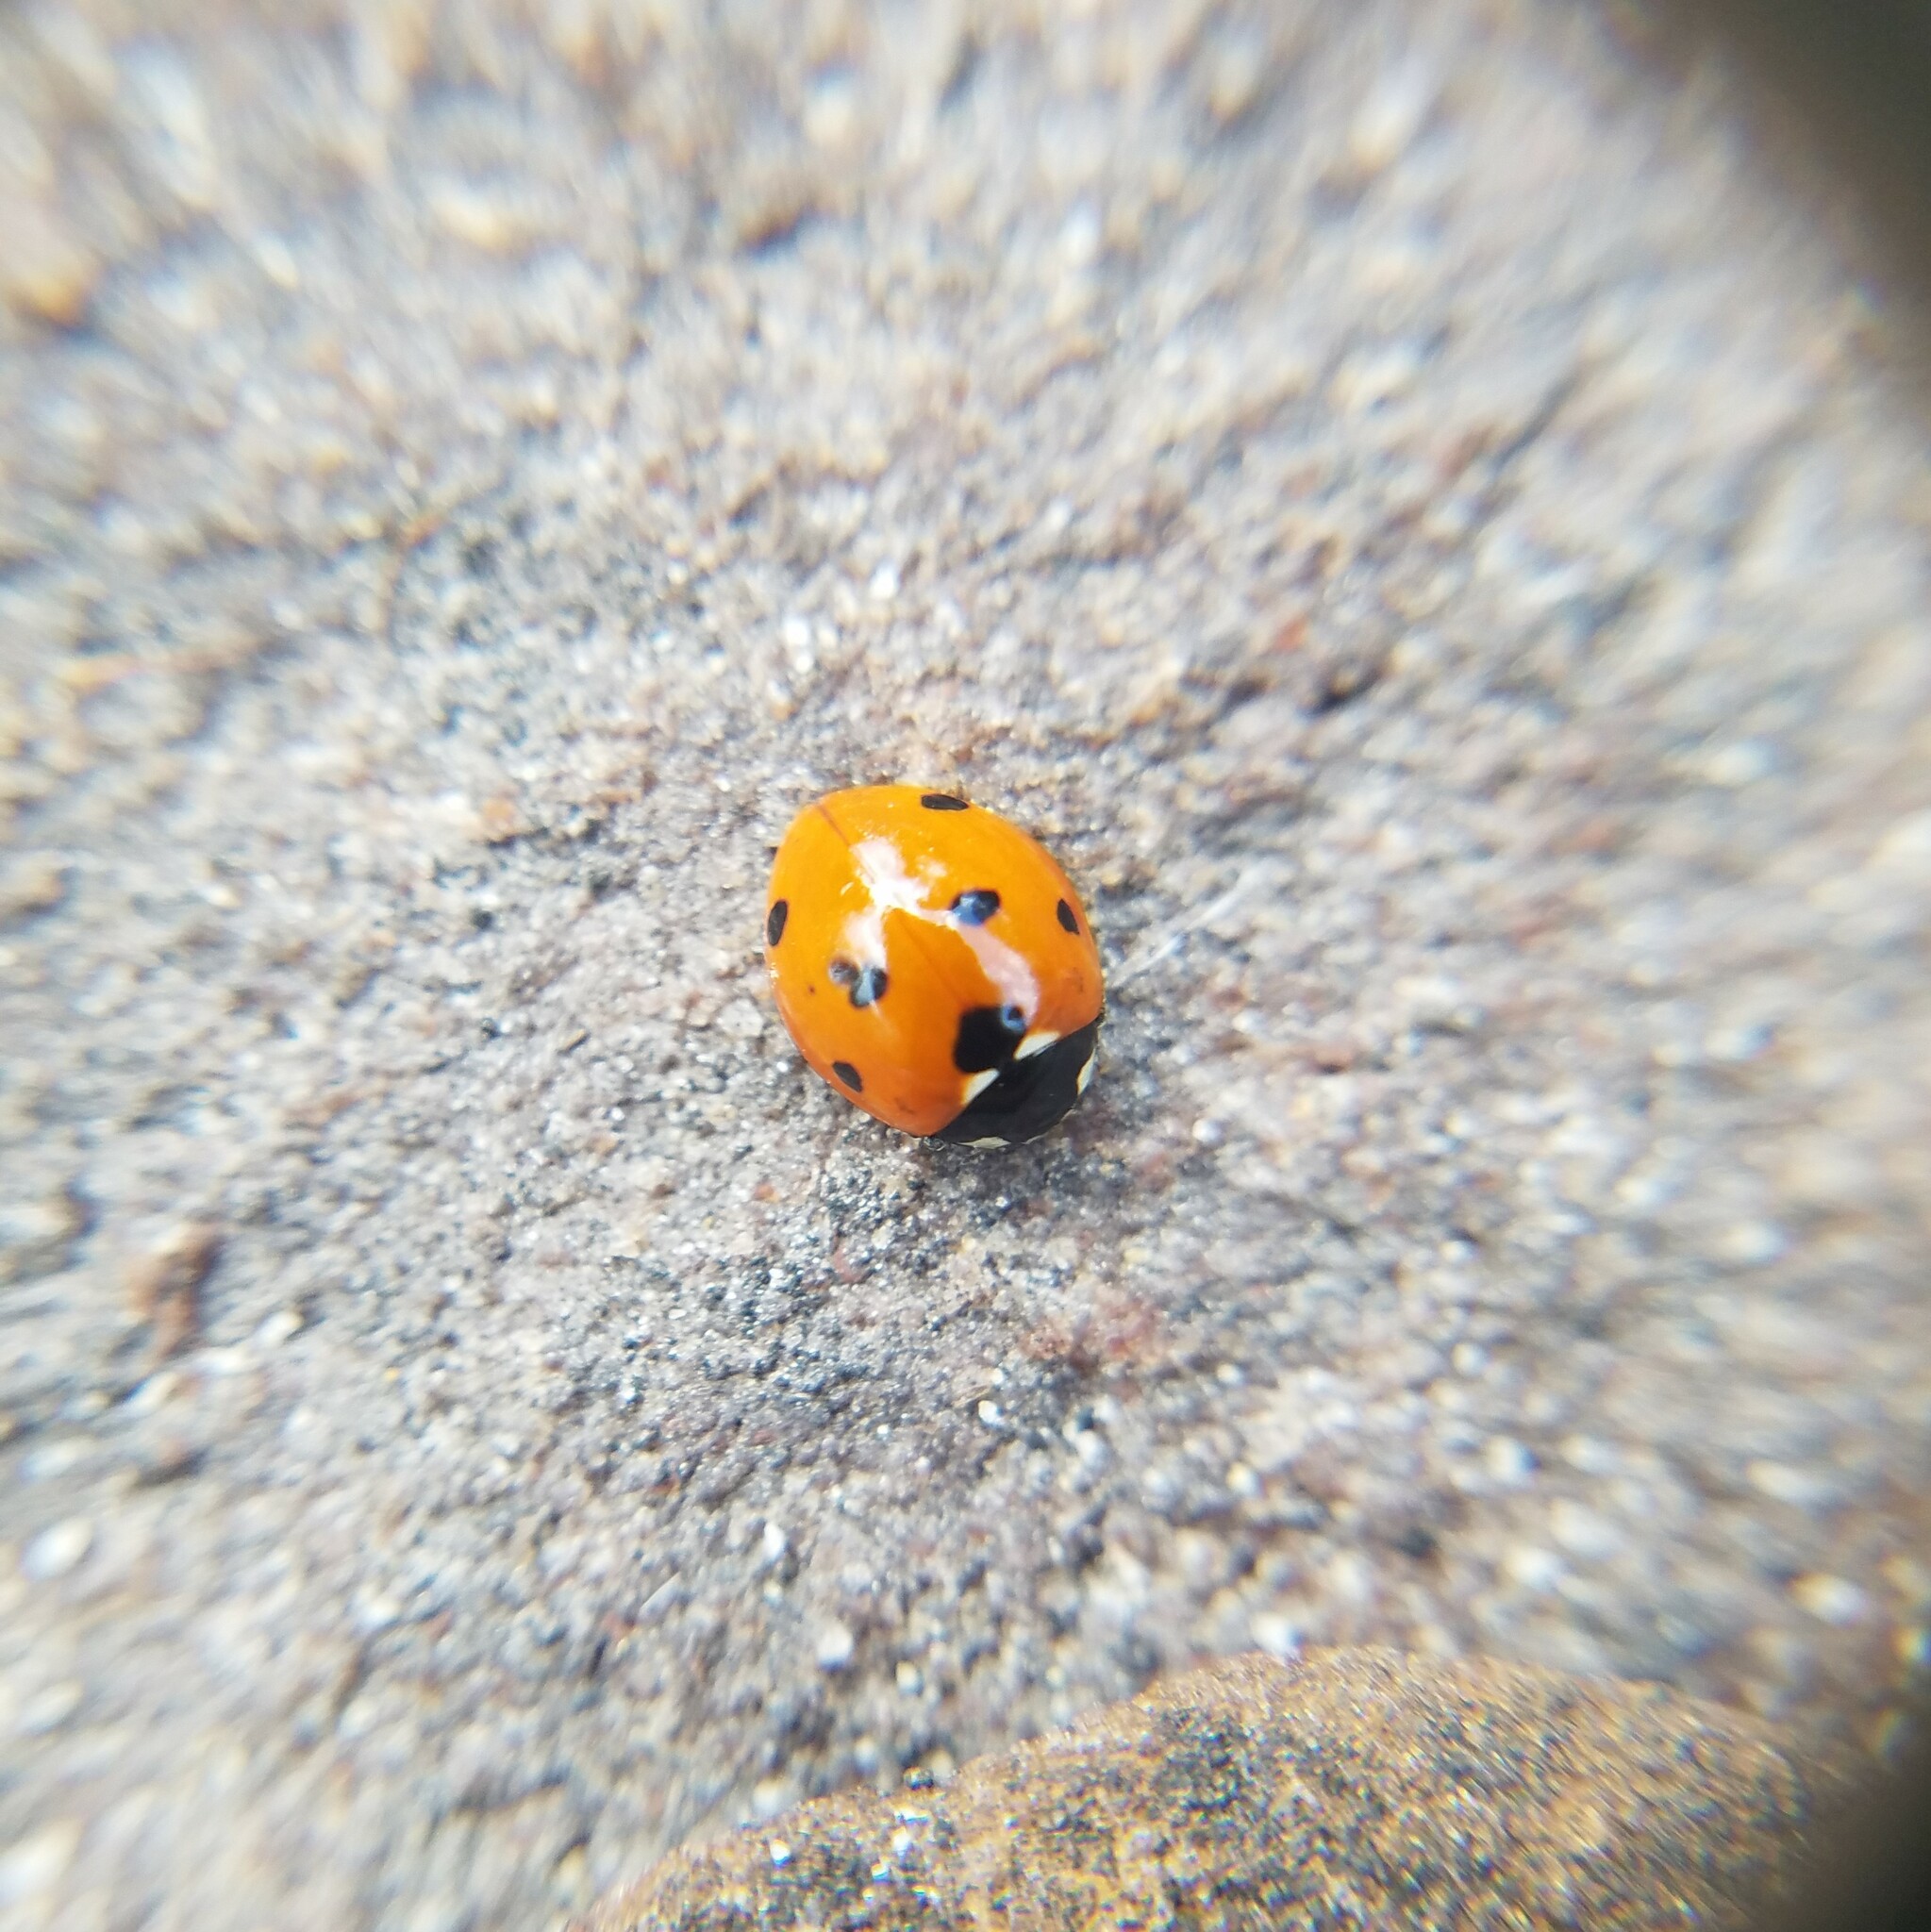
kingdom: Animalia
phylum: Arthropoda
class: Insecta
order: Coleoptera
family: Coccinellidae
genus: Coccinella
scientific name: Coccinella septempunctata
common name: Sevenspotted lady beetle
